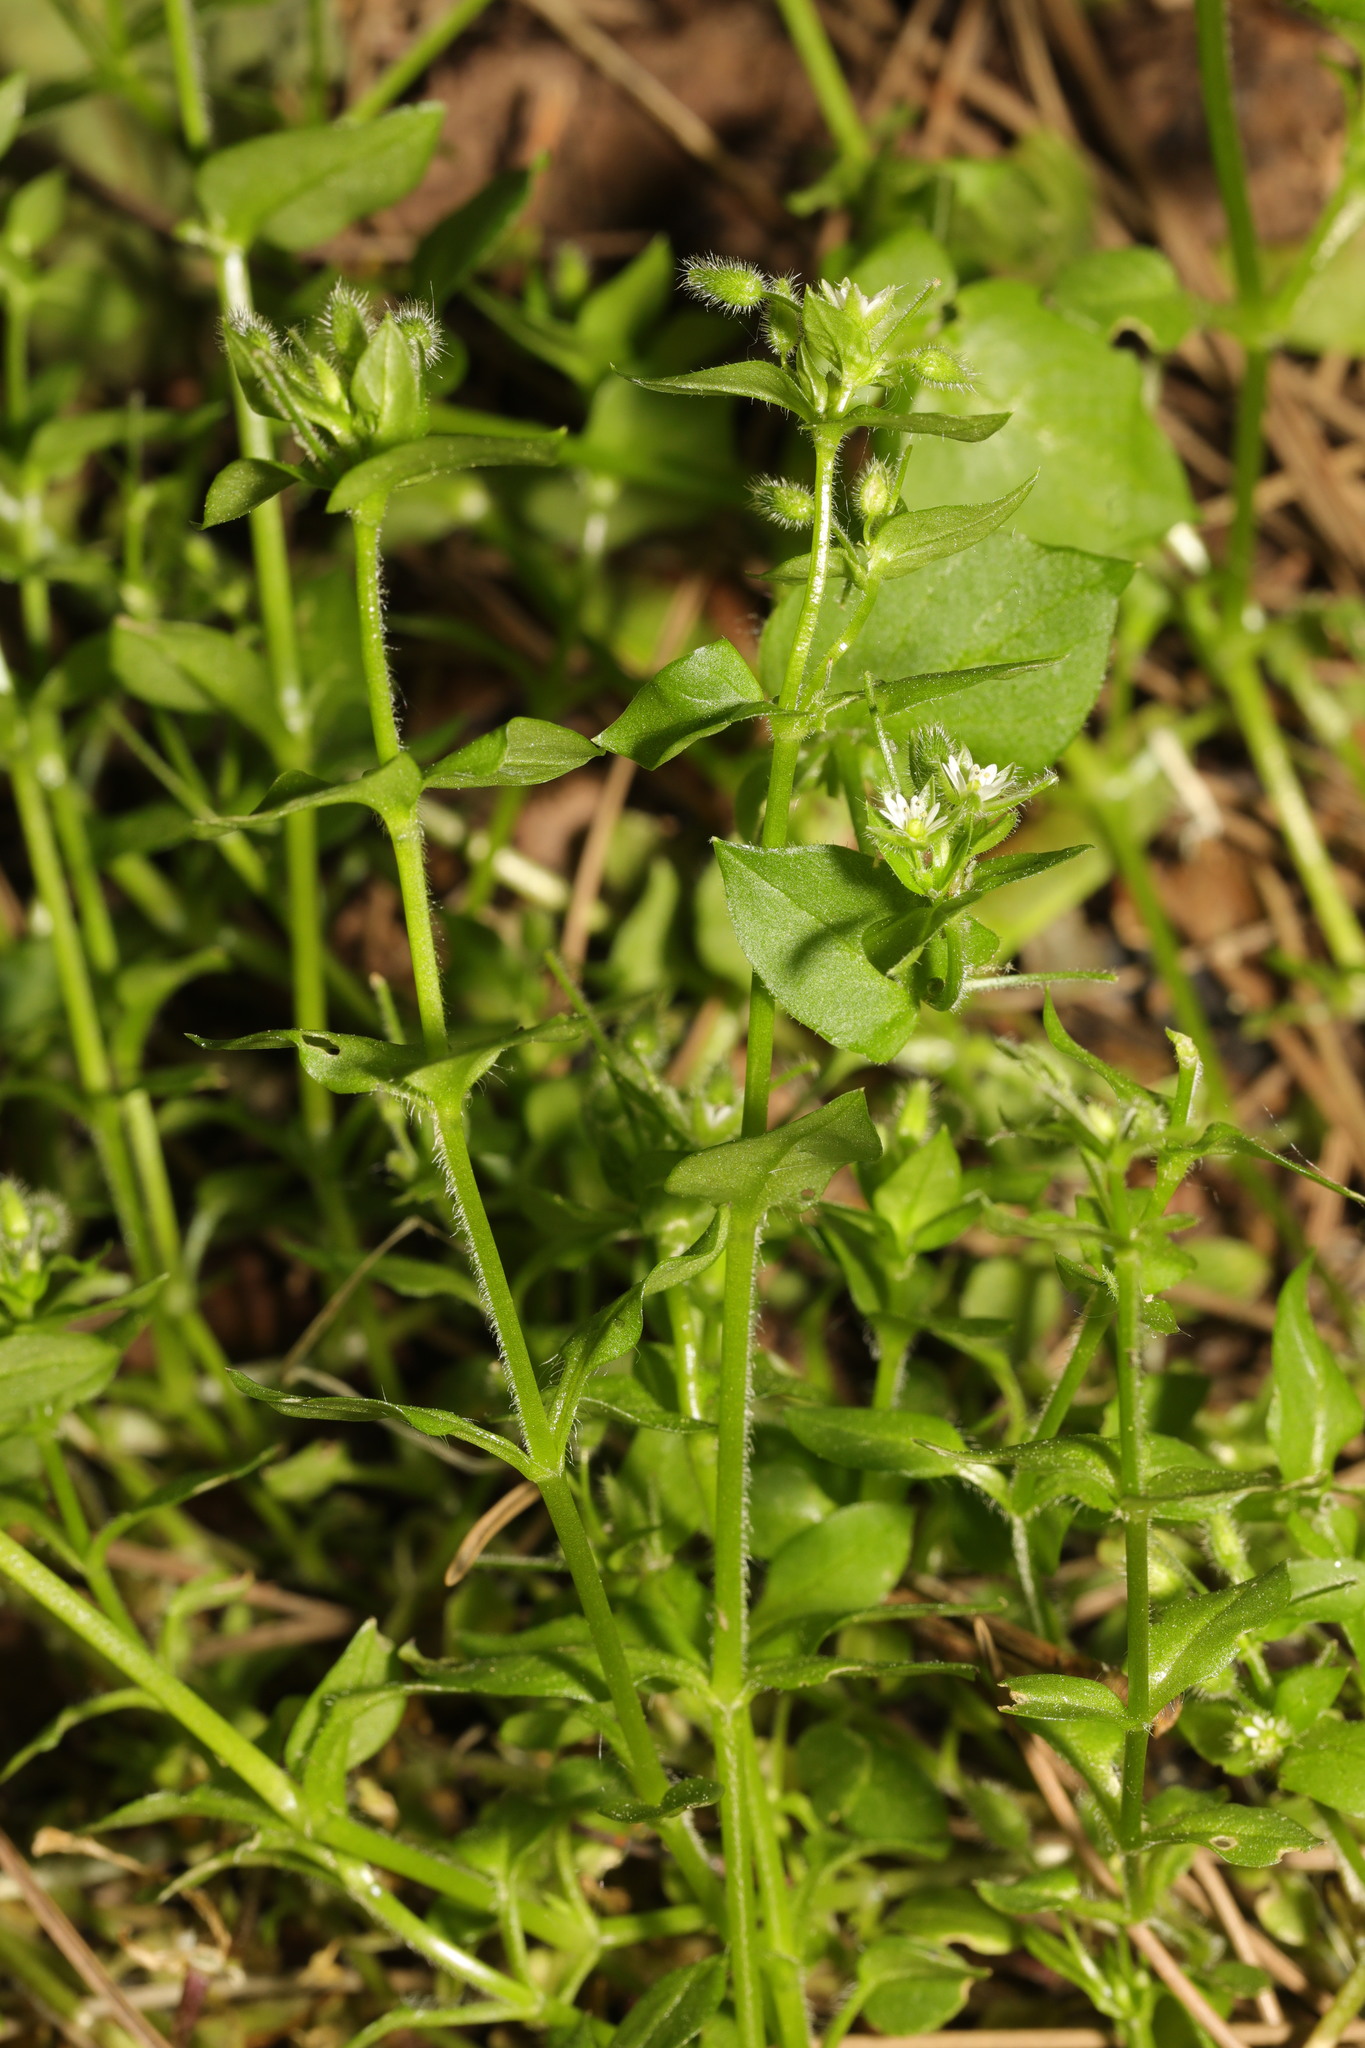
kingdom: Plantae
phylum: Tracheophyta
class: Magnoliopsida
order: Caryophyllales
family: Caryophyllaceae
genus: Stellaria
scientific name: Stellaria media
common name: Common chickweed
